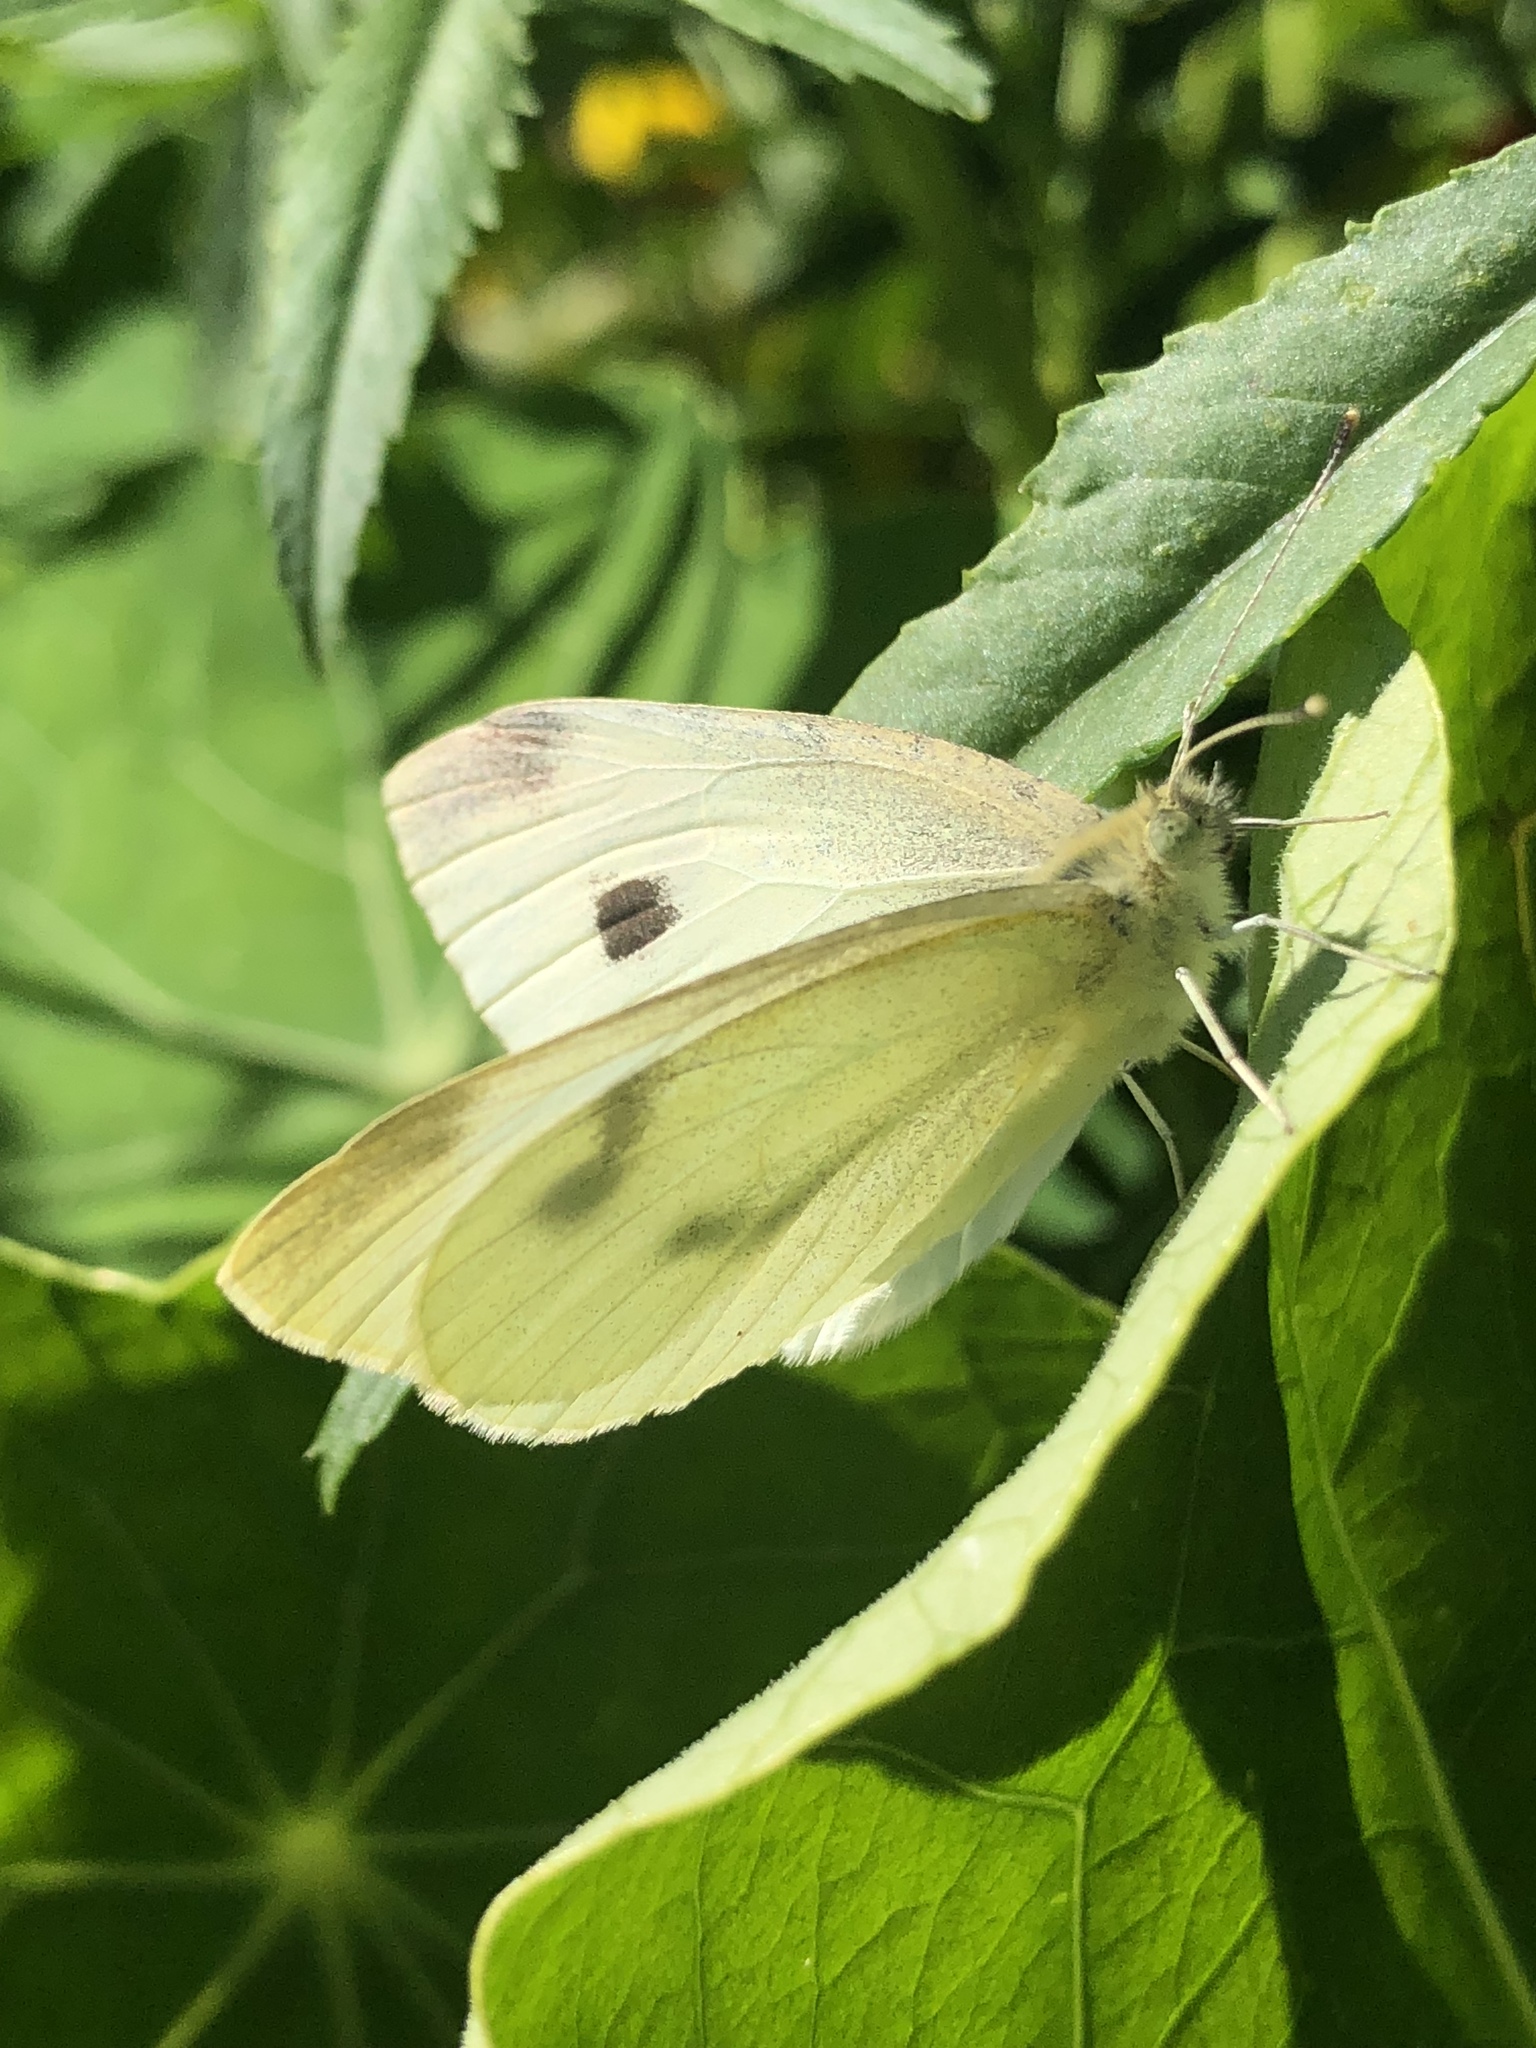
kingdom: Animalia
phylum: Arthropoda
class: Insecta
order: Lepidoptera
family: Pieridae
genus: Pieris
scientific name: Pieris rapae
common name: Small white
